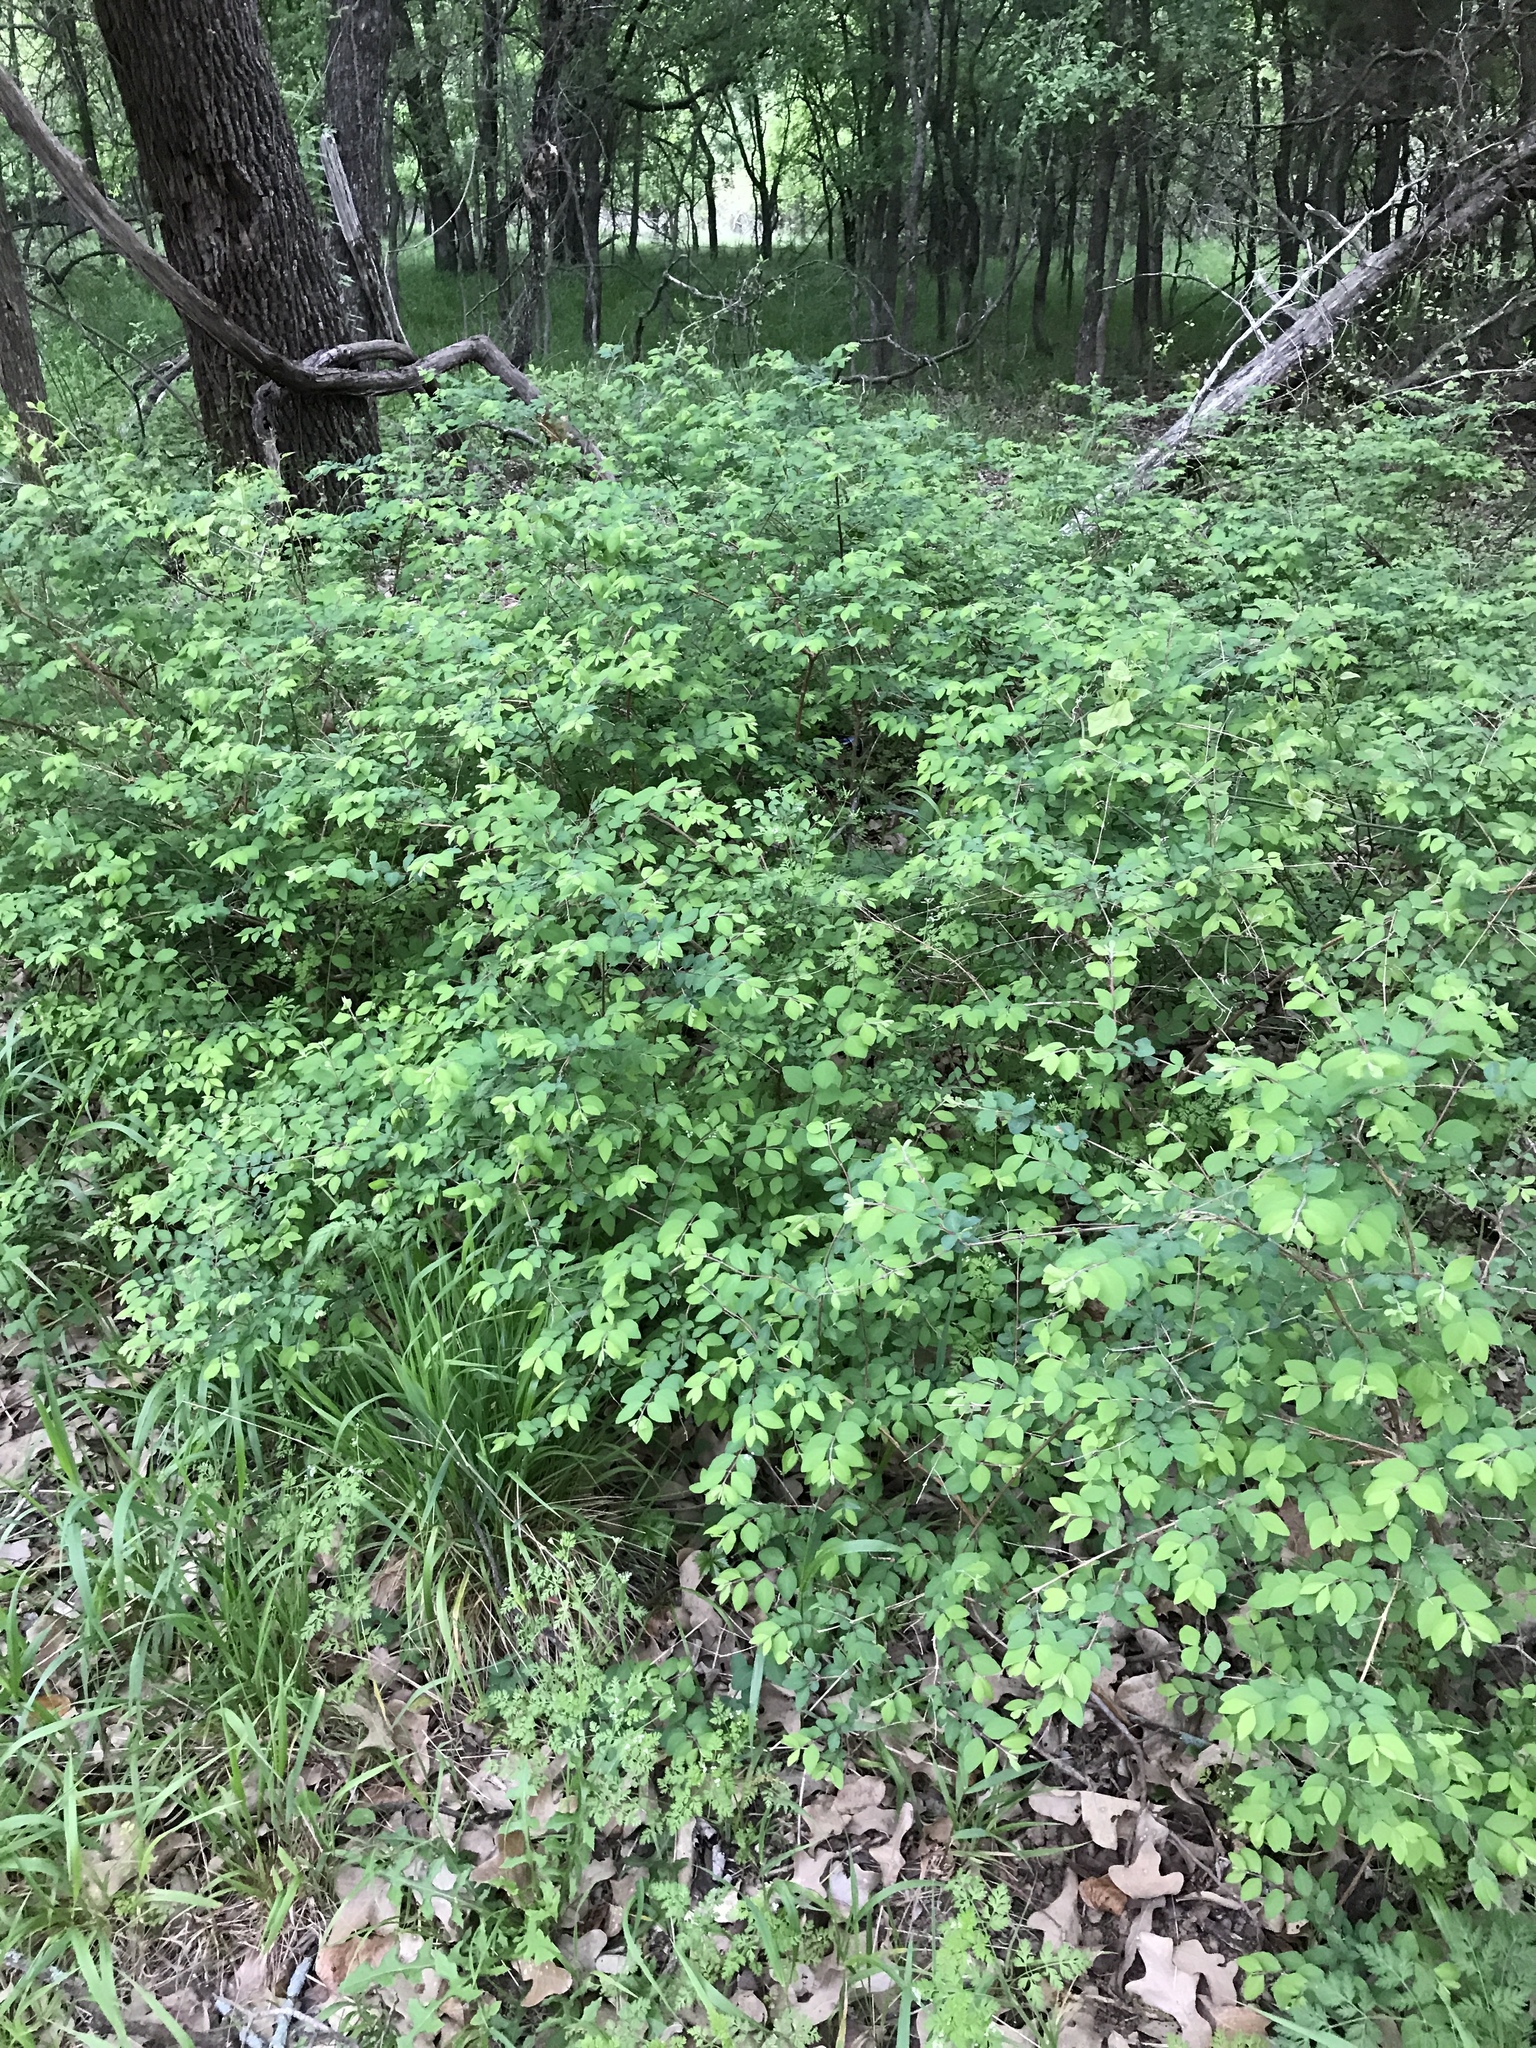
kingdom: Plantae
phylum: Tracheophyta
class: Magnoliopsida
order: Dipsacales
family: Caprifoliaceae
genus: Symphoricarpos
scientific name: Symphoricarpos orbiculatus
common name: Coralberry
